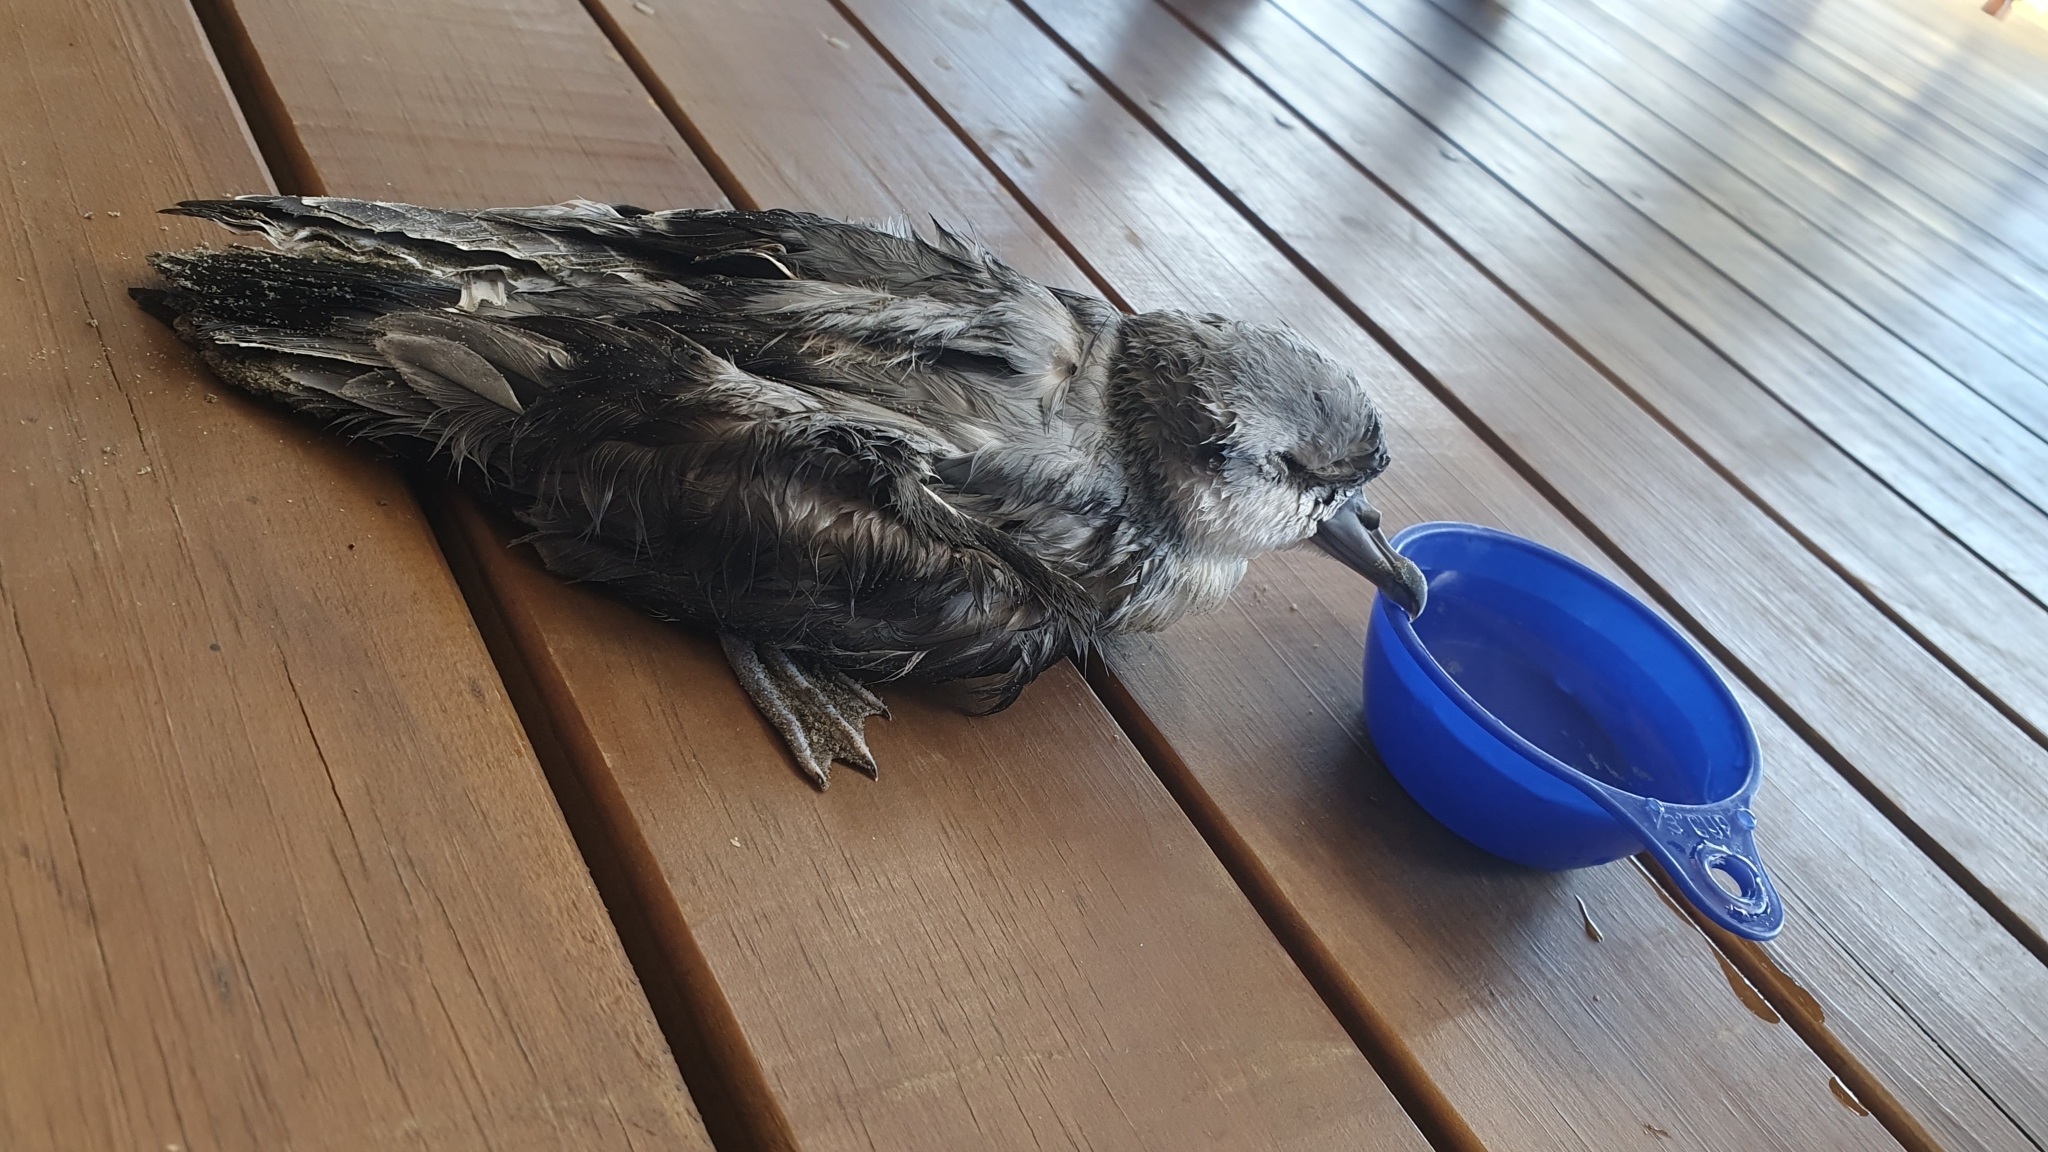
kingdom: Animalia
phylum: Chordata
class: Aves
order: Procellariiformes
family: Procellariidae
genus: Pachyptila
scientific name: Pachyptila turtur
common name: Fairy prion
